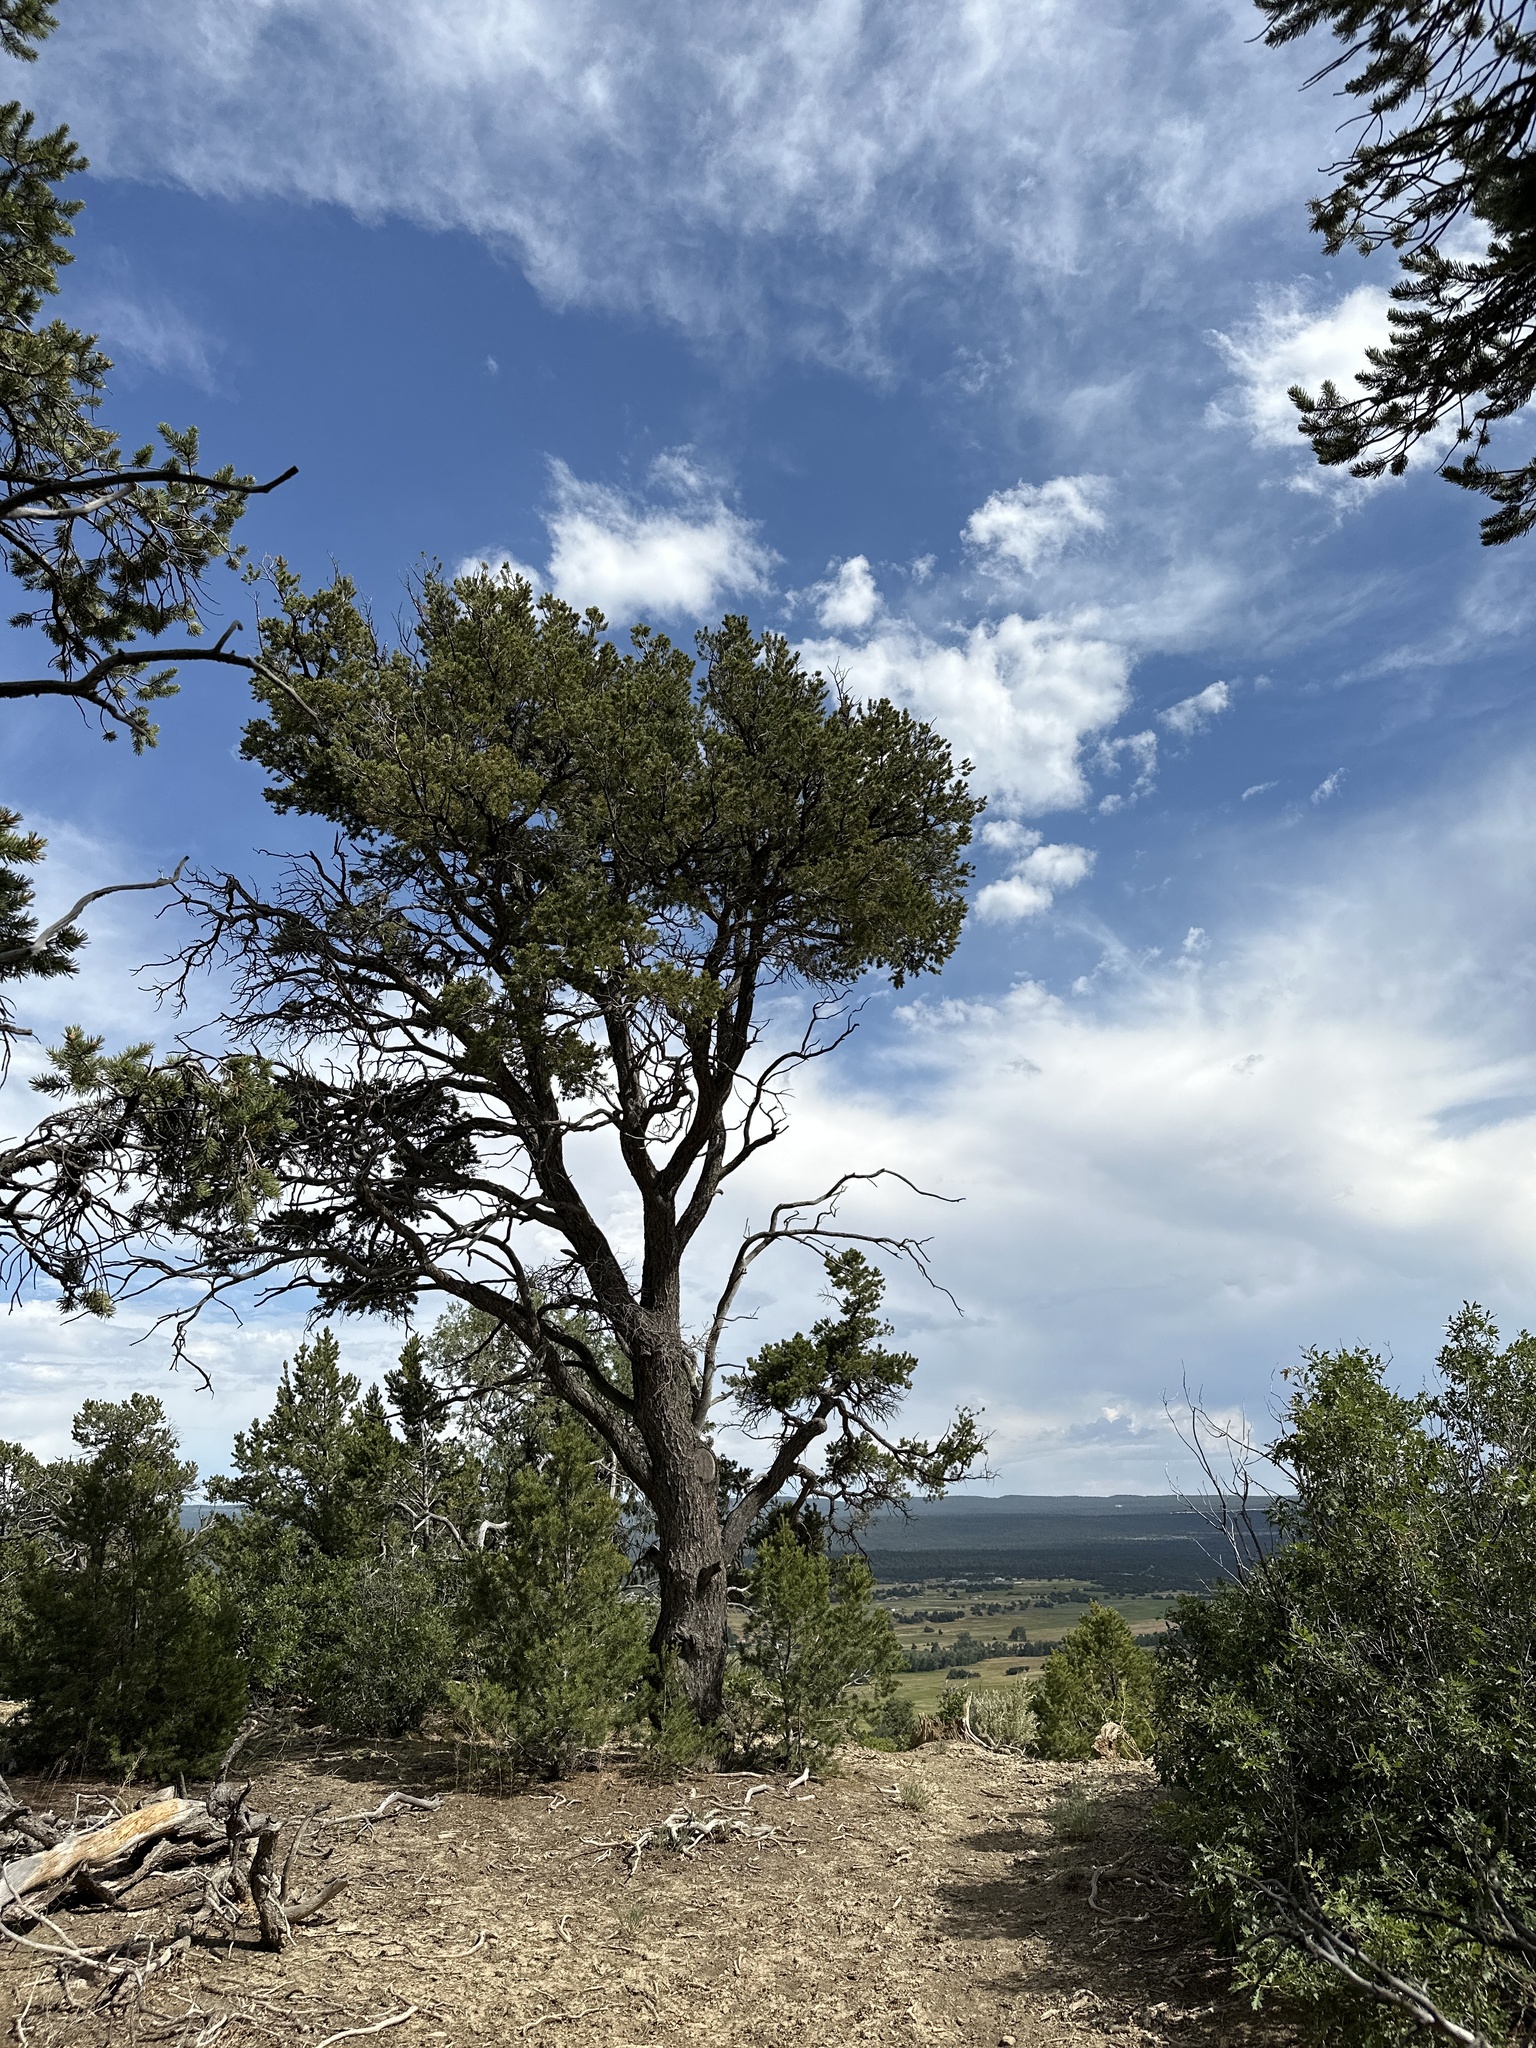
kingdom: Plantae
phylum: Tracheophyta
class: Pinopsida
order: Pinales
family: Pinaceae
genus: Pinus
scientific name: Pinus edulis
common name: Colorado pinyon
